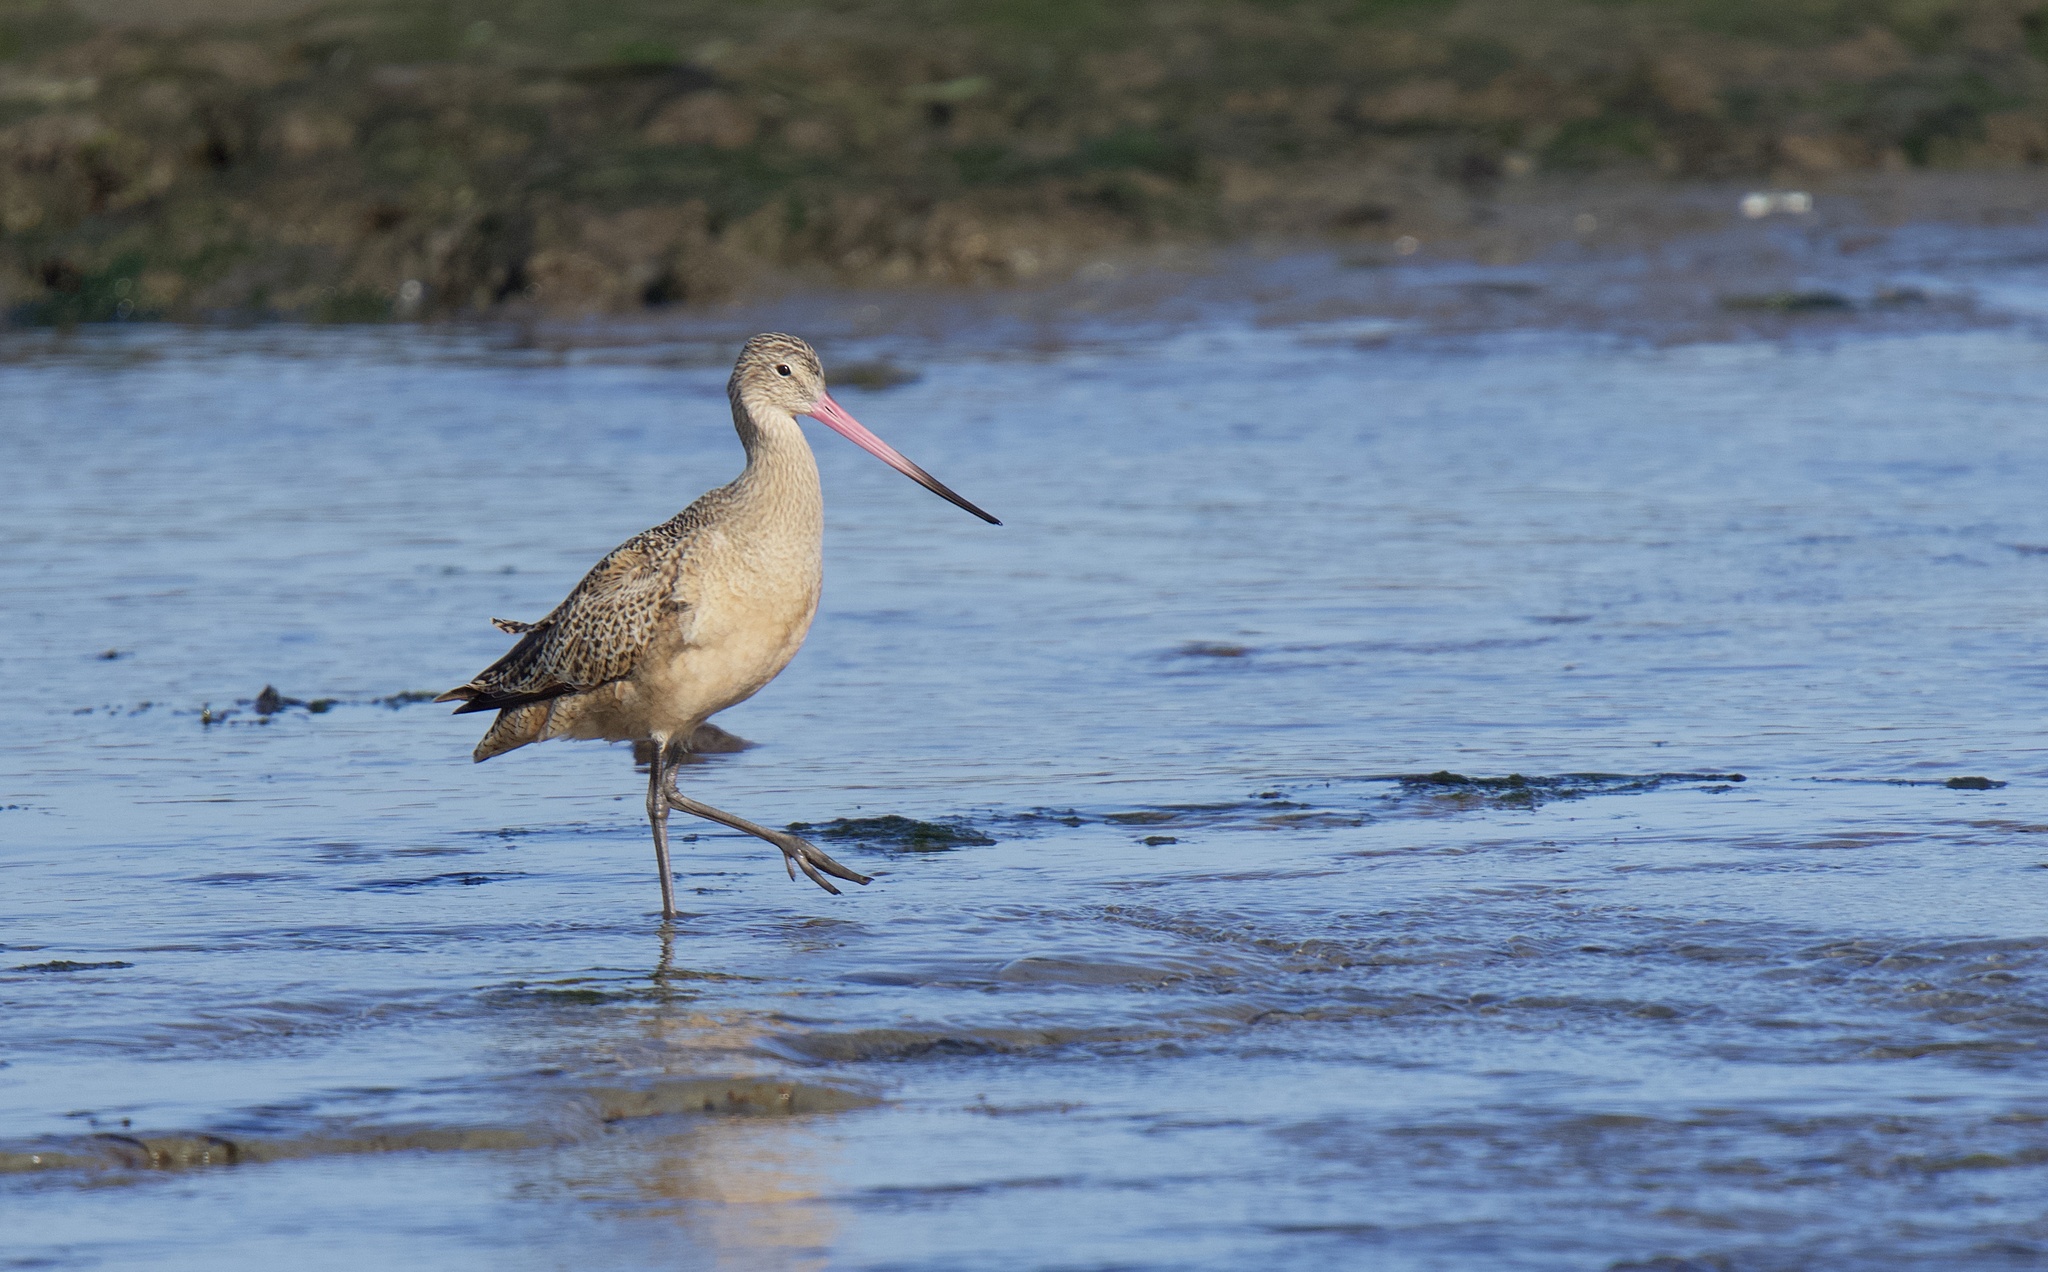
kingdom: Animalia
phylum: Chordata
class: Aves
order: Charadriiformes
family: Scolopacidae
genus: Limosa
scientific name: Limosa fedoa
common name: Marbled godwit
